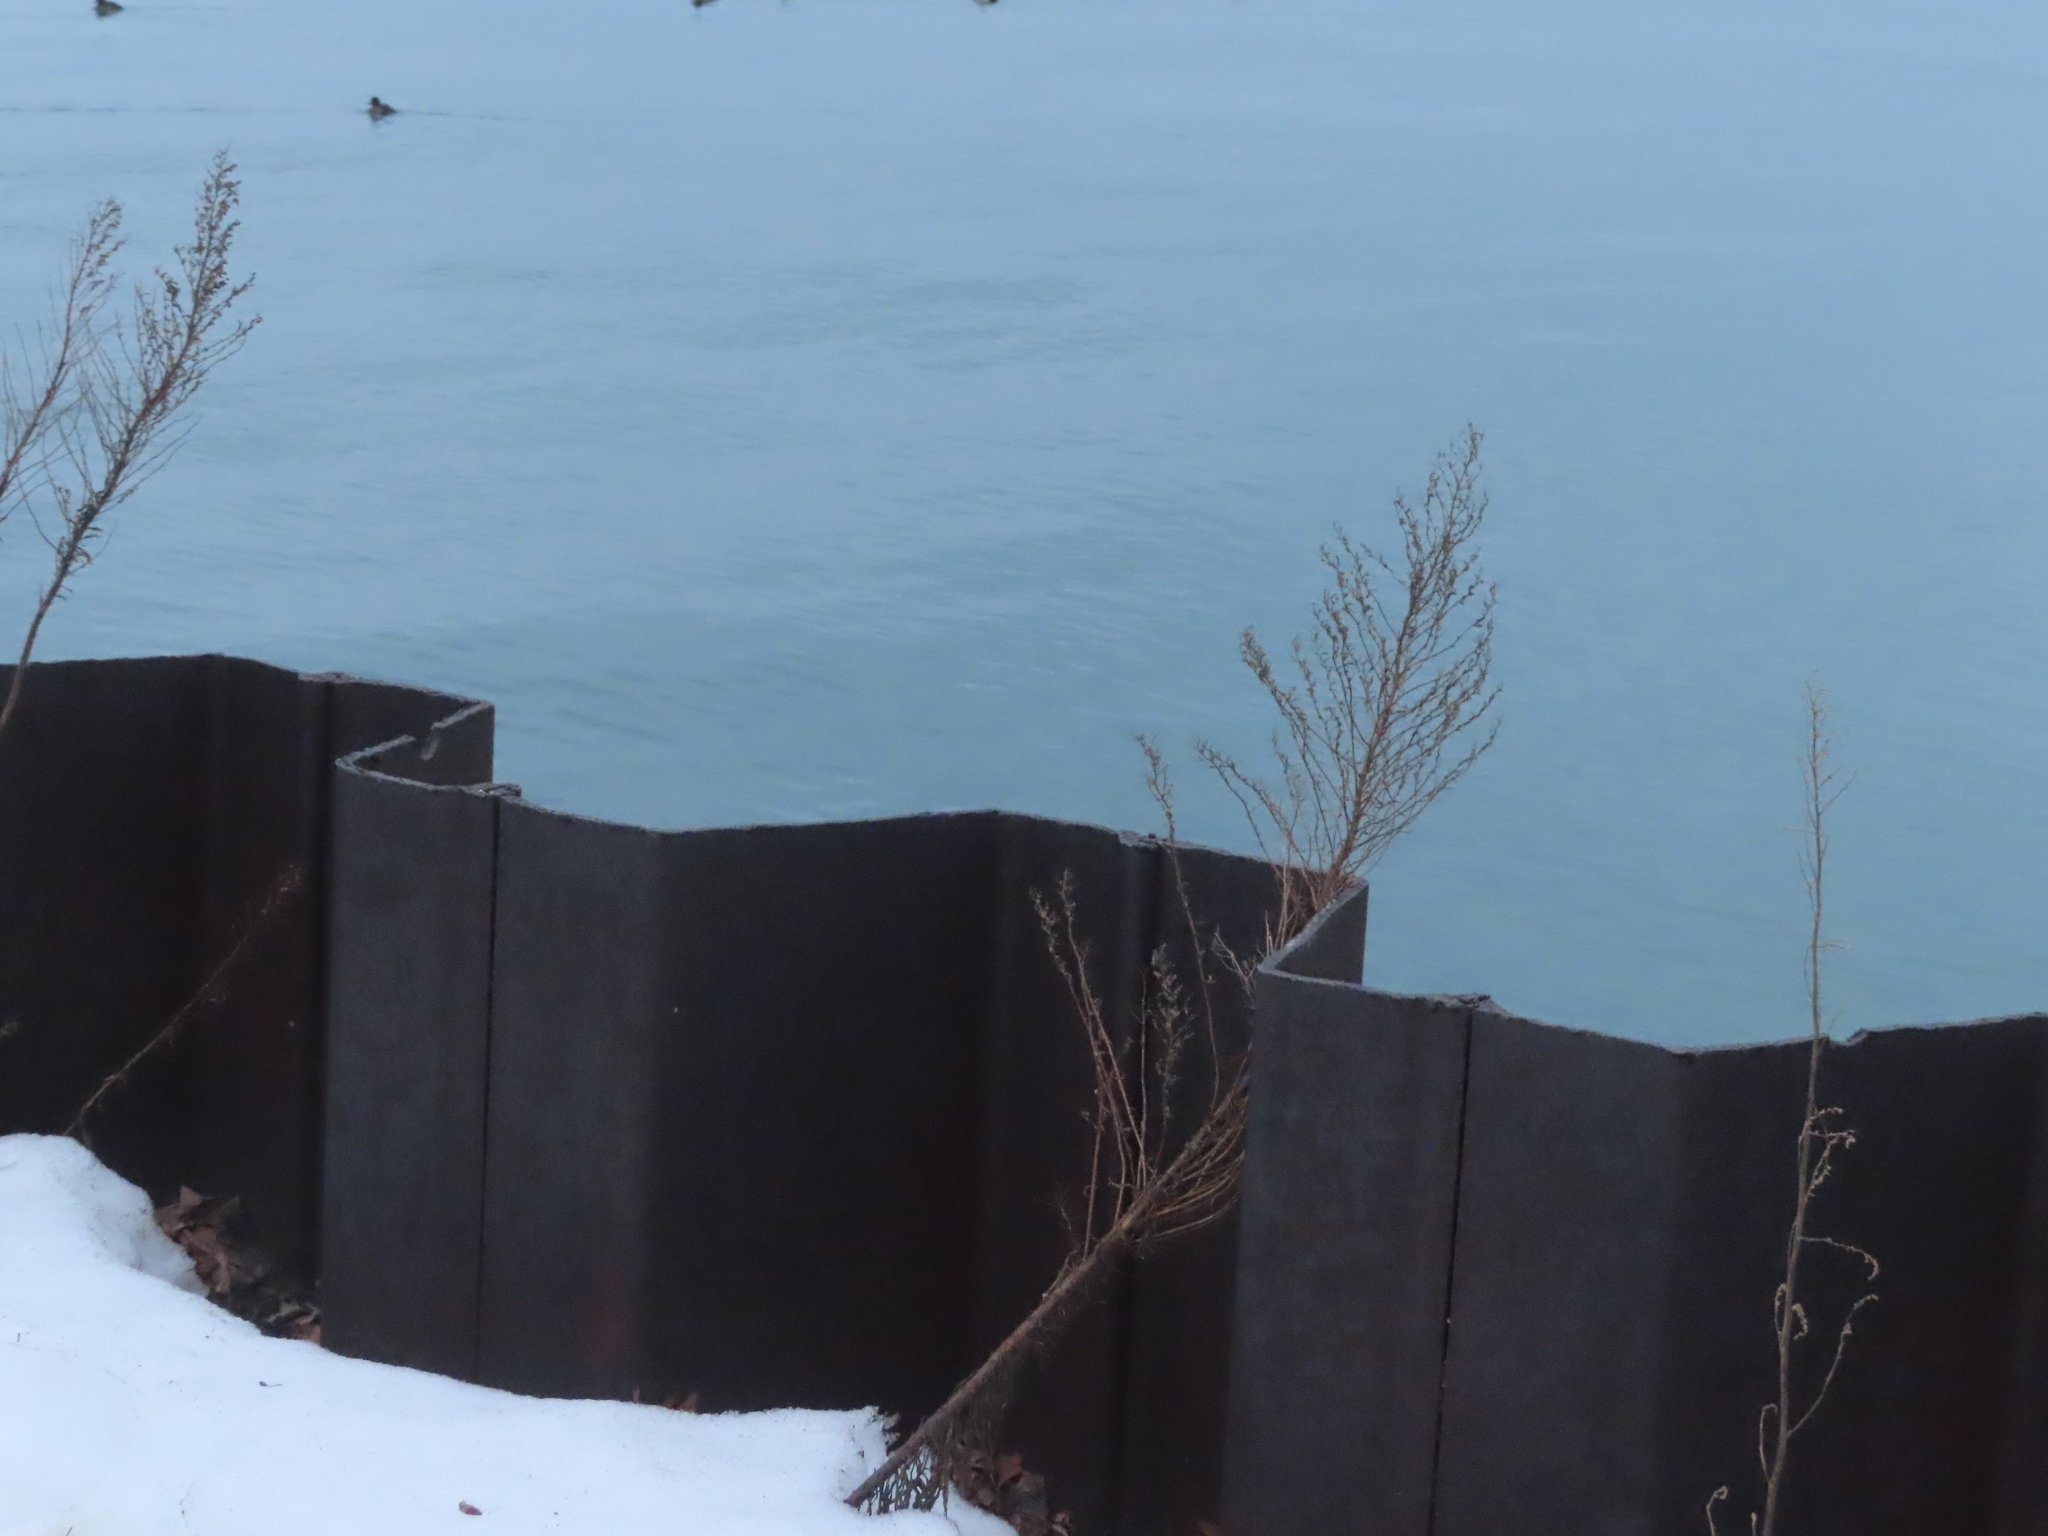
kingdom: Plantae
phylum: Tracheophyta
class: Magnoliopsida
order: Asterales
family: Asteraceae
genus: Erigeron
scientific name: Erigeron canadensis
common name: Canadian fleabane
